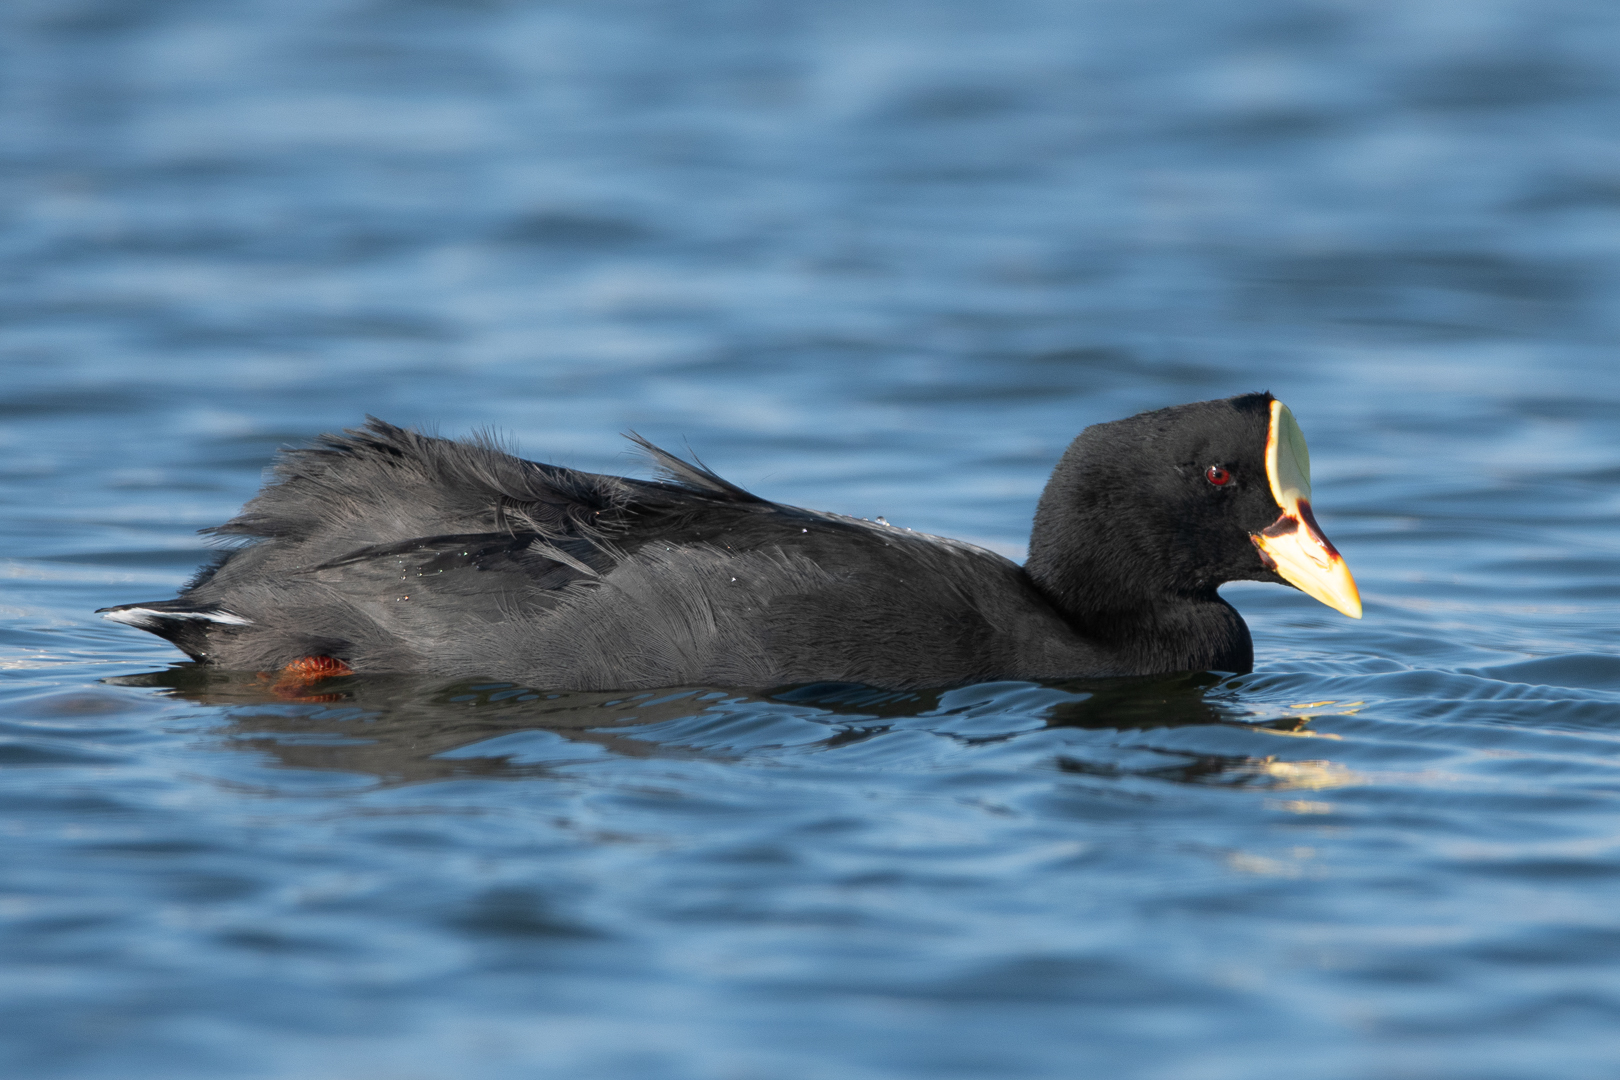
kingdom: Animalia
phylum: Chordata
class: Aves
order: Gruiformes
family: Rallidae
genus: Fulica
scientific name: Fulica armillata
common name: Red-gartered coot
